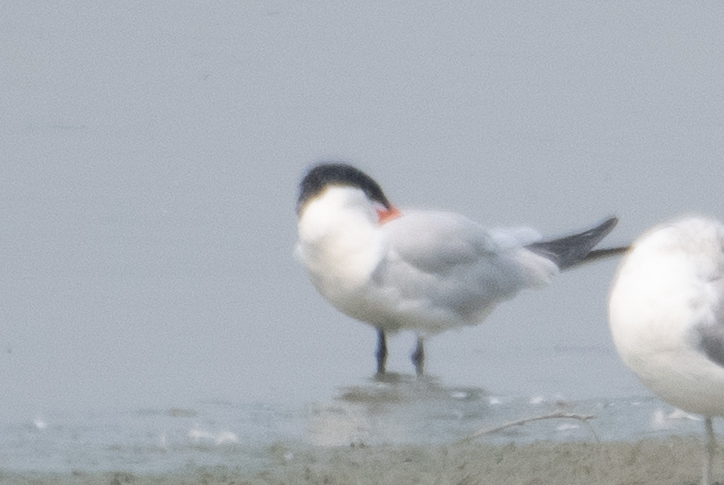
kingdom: Animalia
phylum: Chordata
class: Aves
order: Charadriiformes
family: Laridae
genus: Hydroprogne
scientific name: Hydroprogne caspia
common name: Caspian tern
